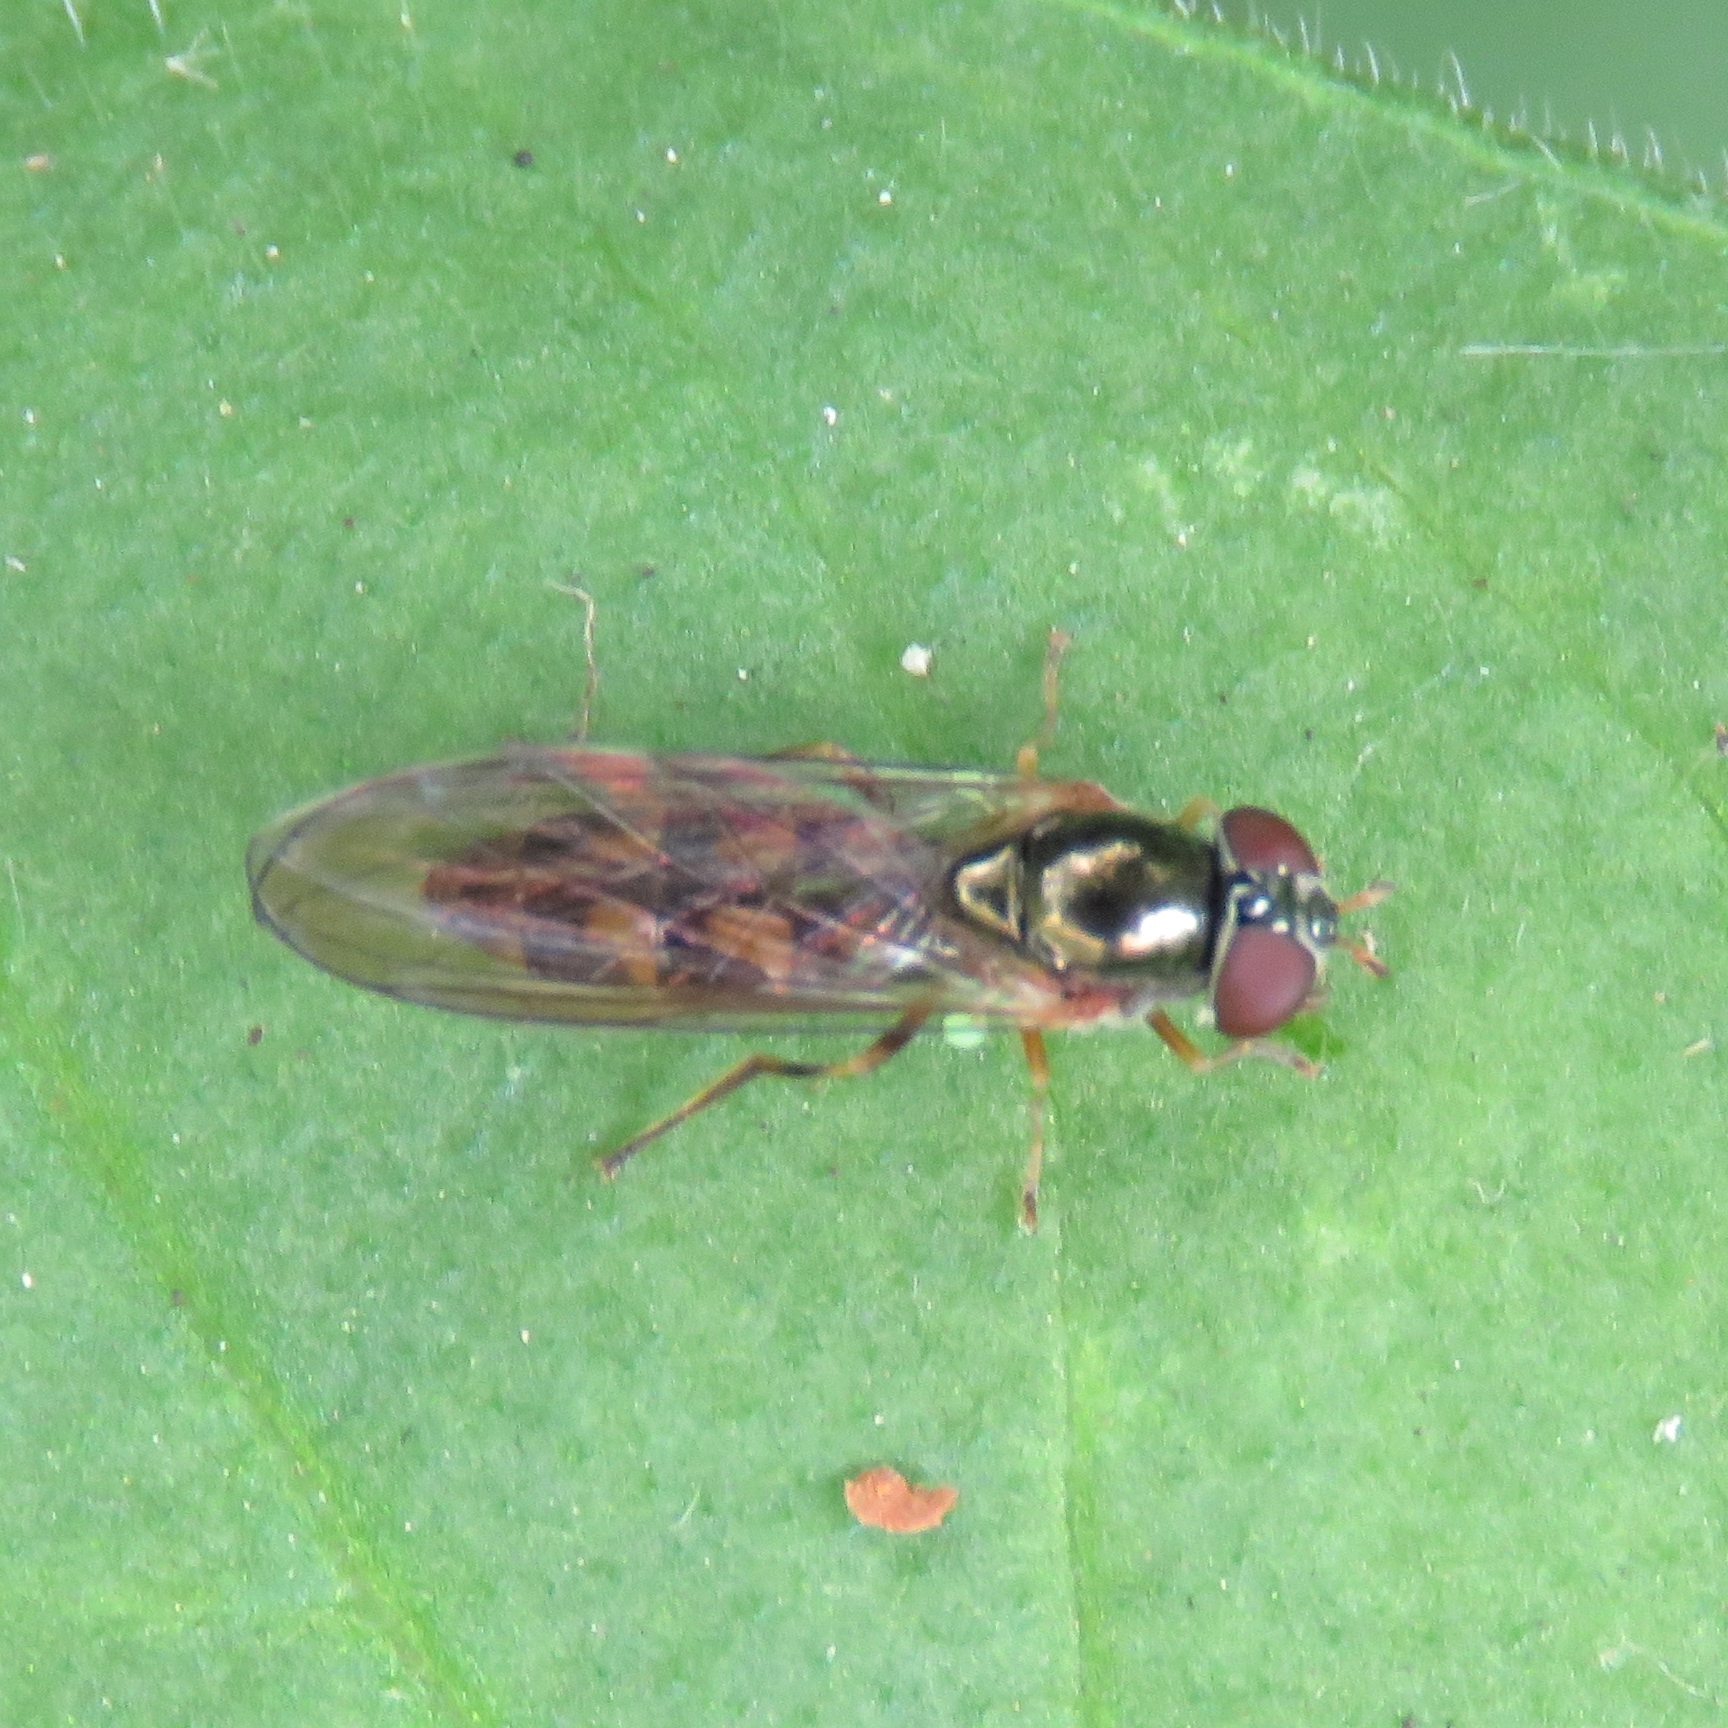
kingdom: Animalia
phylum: Arthropoda
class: Insecta
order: Diptera
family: Syrphidae
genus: Melanostoma
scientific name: Melanostoma scalare
